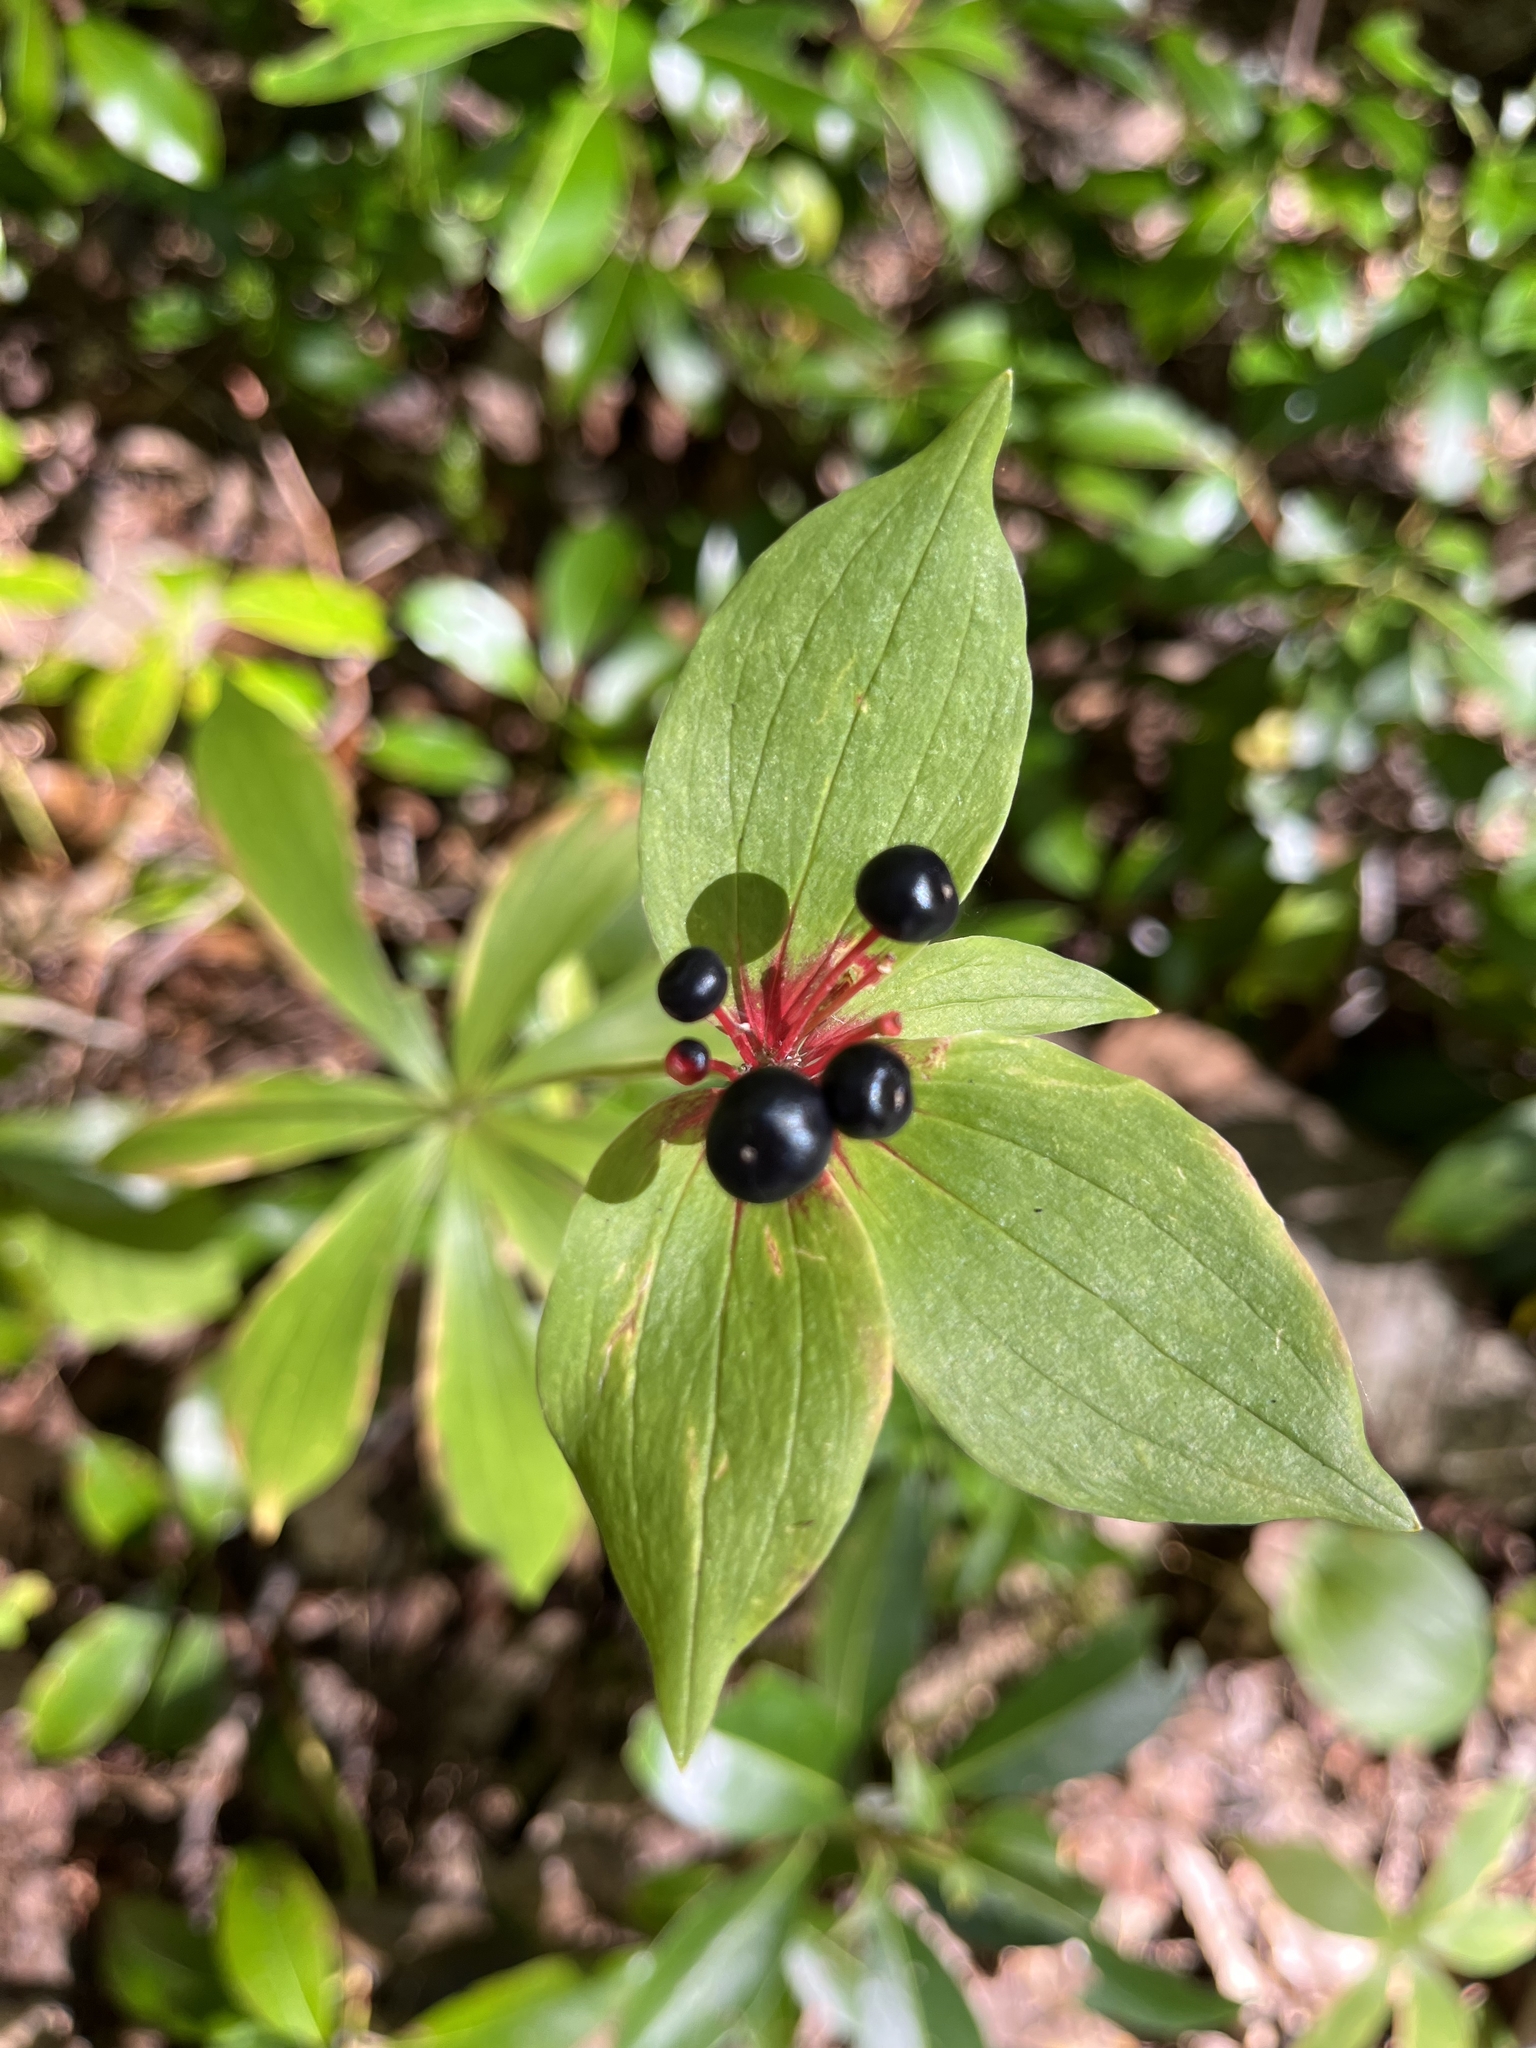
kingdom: Plantae
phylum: Tracheophyta
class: Liliopsida
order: Liliales
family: Liliaceae
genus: Medeola
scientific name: Medeola virginiana
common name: Indian cucumber-root
